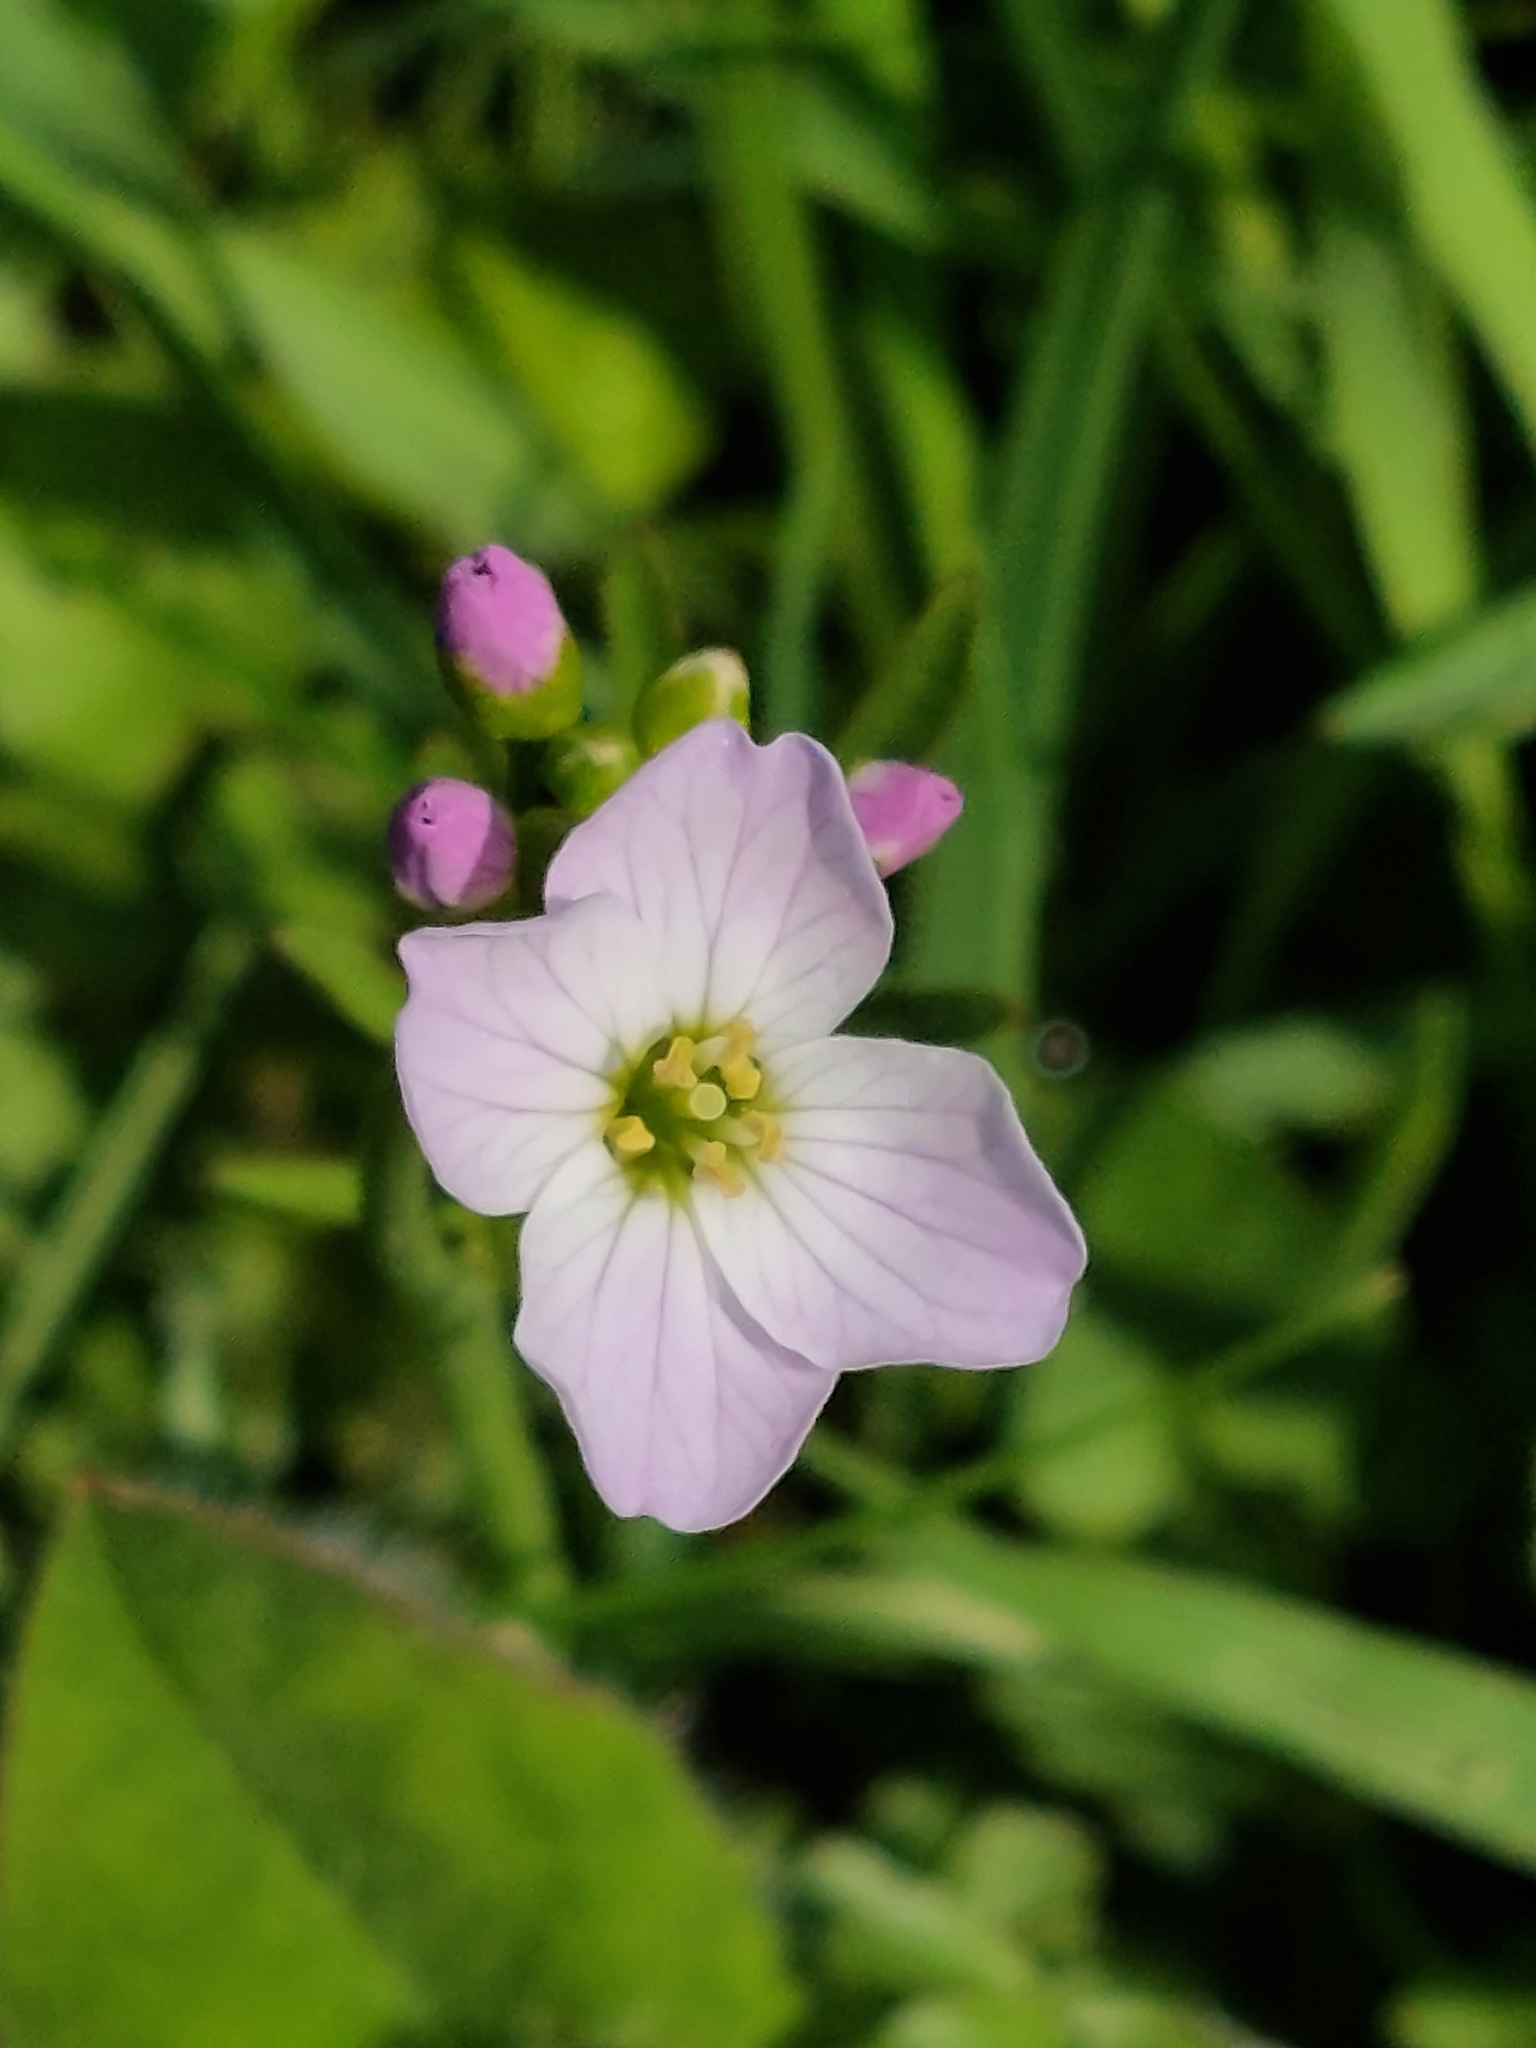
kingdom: Plantae
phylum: Tracheophyta
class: Magnoliopsida
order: Brassicales
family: Brassicaceae
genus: Cardamine
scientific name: Cardamine pratensis
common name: Cuckoo flower
